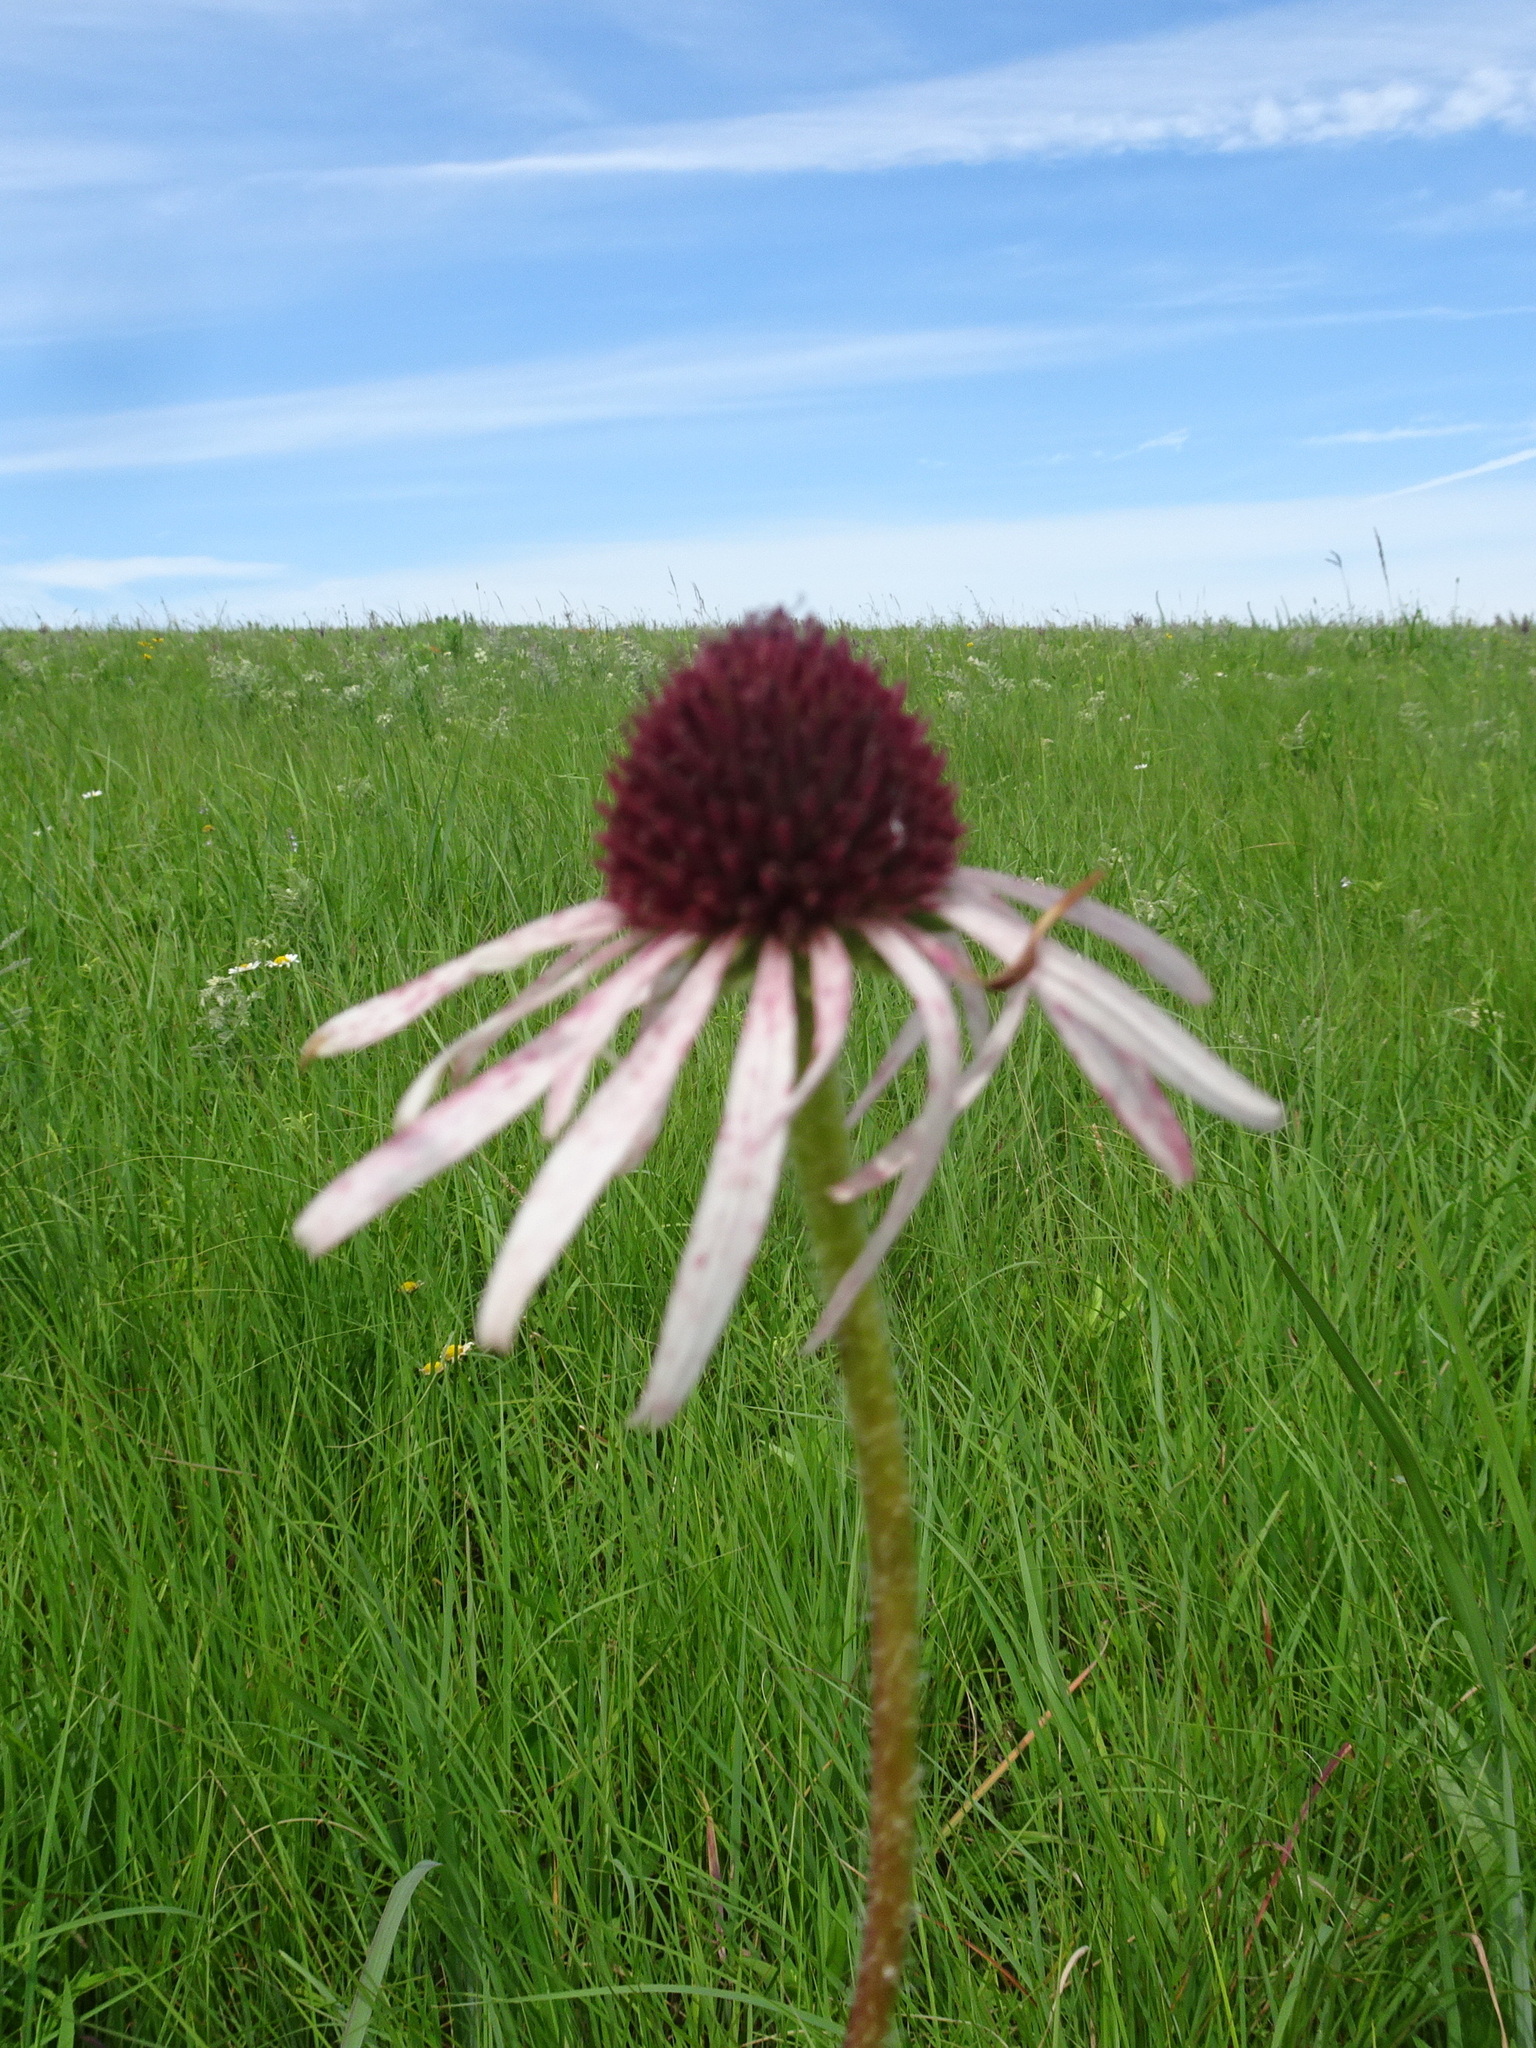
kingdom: Plantae
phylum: Tracheophyta
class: Magnoliopsida
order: Asterales
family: Asteraceae
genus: Echinacea
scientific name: Echinacea pallida
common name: Pale echinacea
